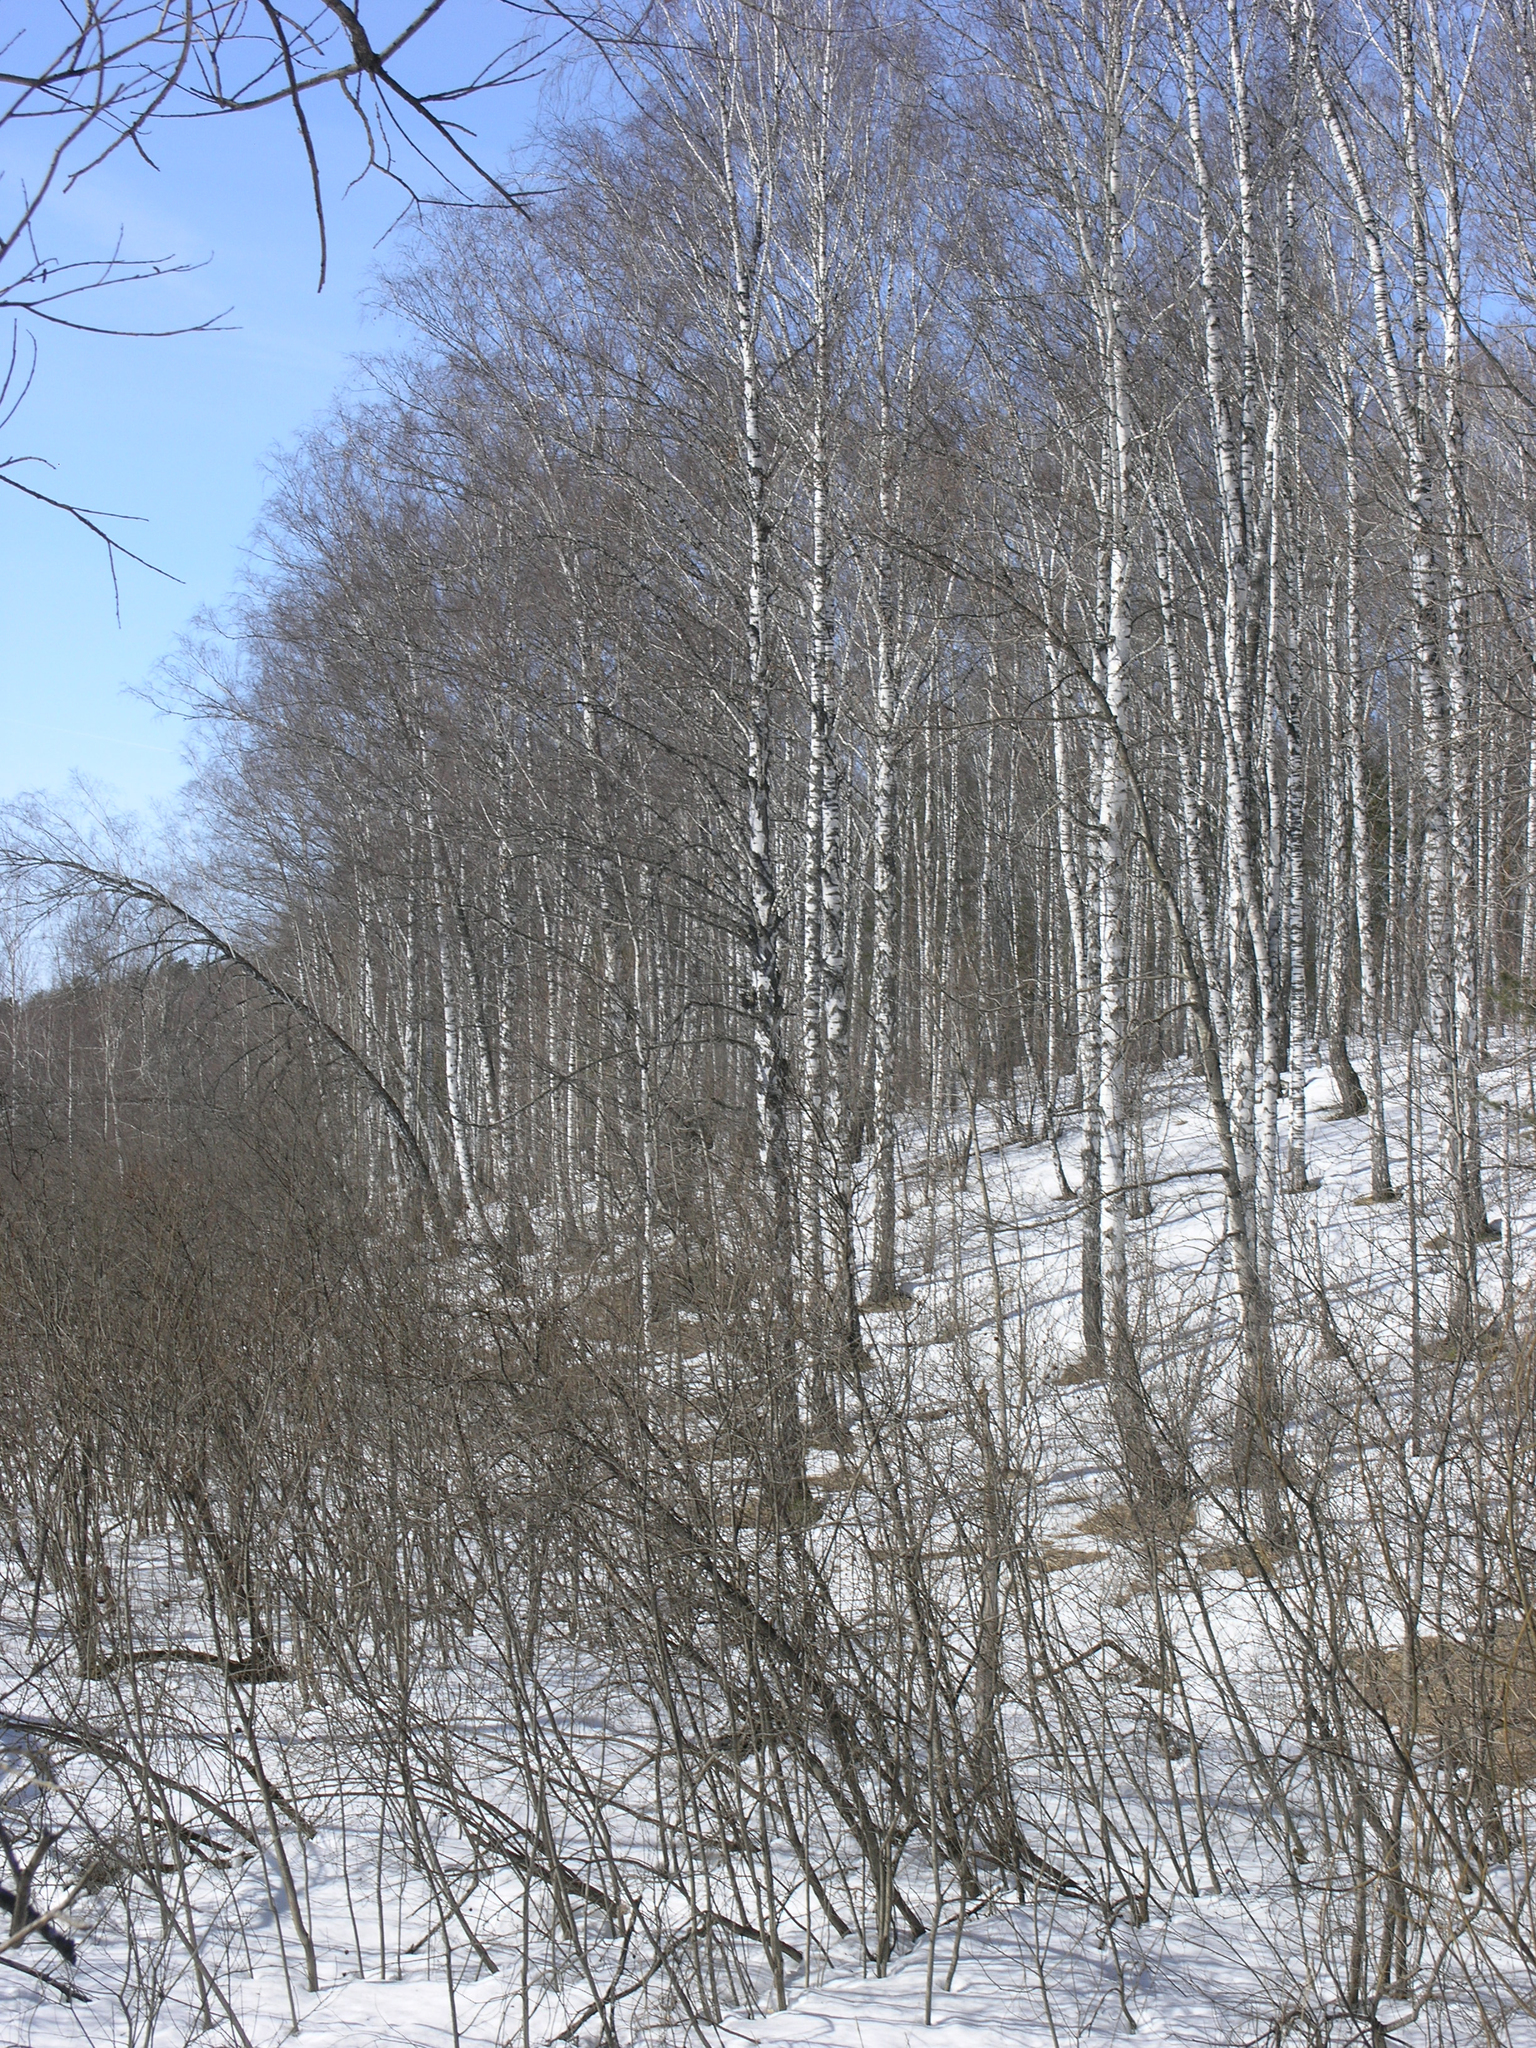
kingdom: Plantae
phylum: Tracheophyta
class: Magnoliopsida
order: Fagales
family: Betulaceae
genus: Betula
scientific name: Betula pendula
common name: Silver birch
